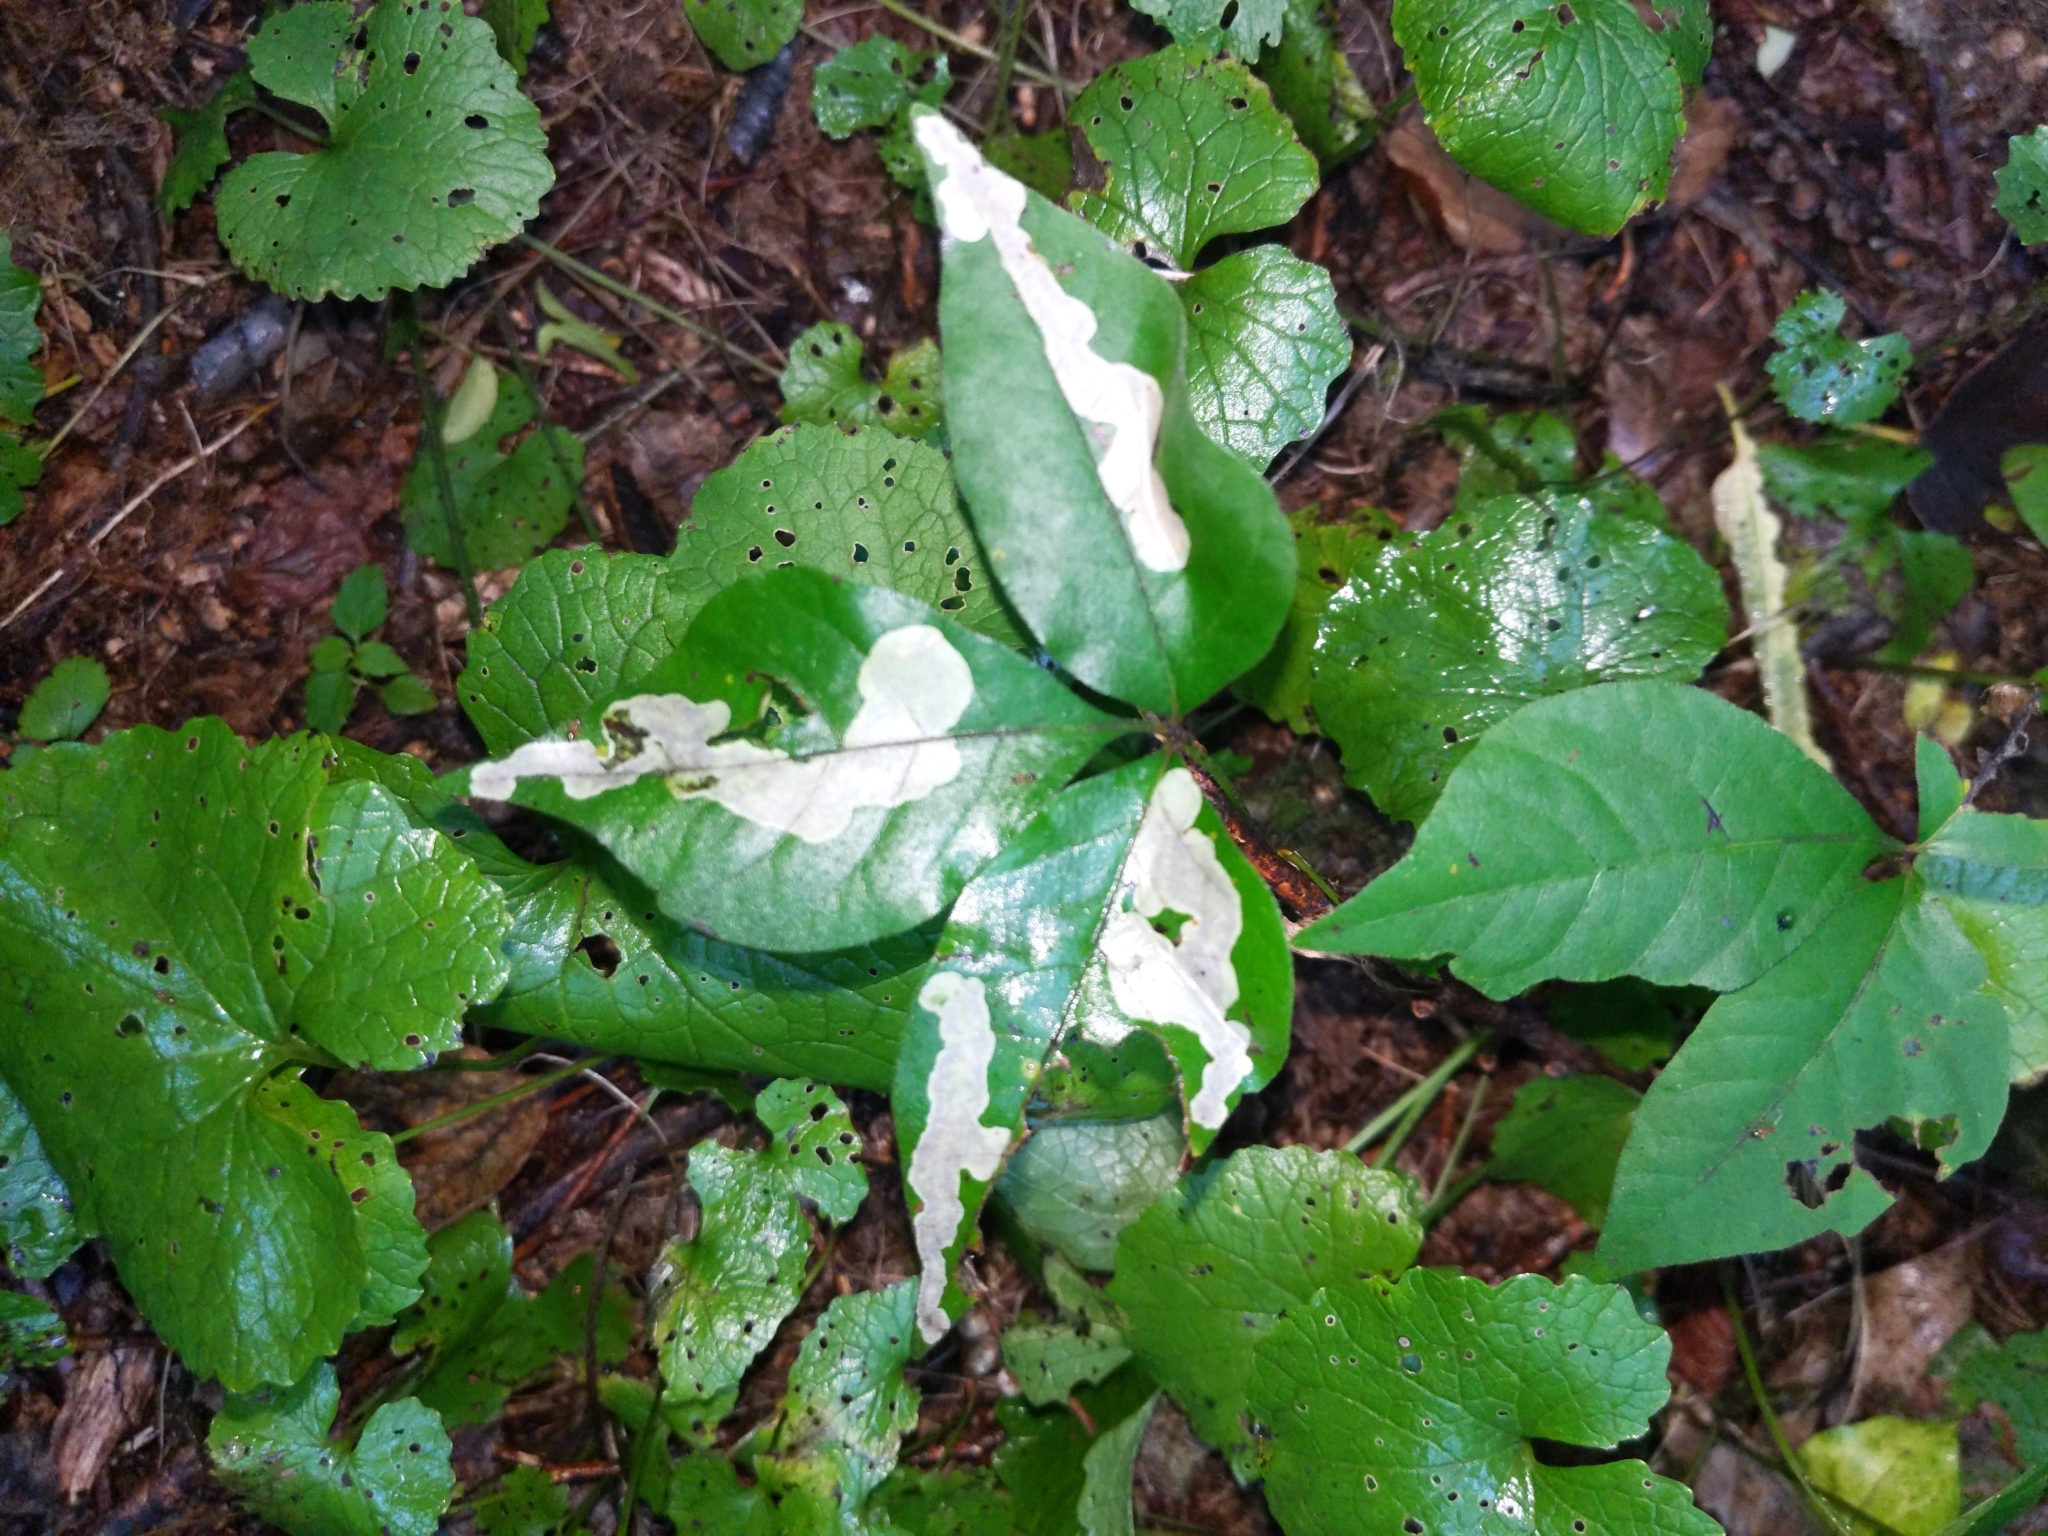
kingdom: Animalia
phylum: Arthropoda
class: Insecta
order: Lepidoptera
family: Gracillariidae
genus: Cameraria
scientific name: Cameraria guttifinitella
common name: Poison ivy leaf-miner moth
